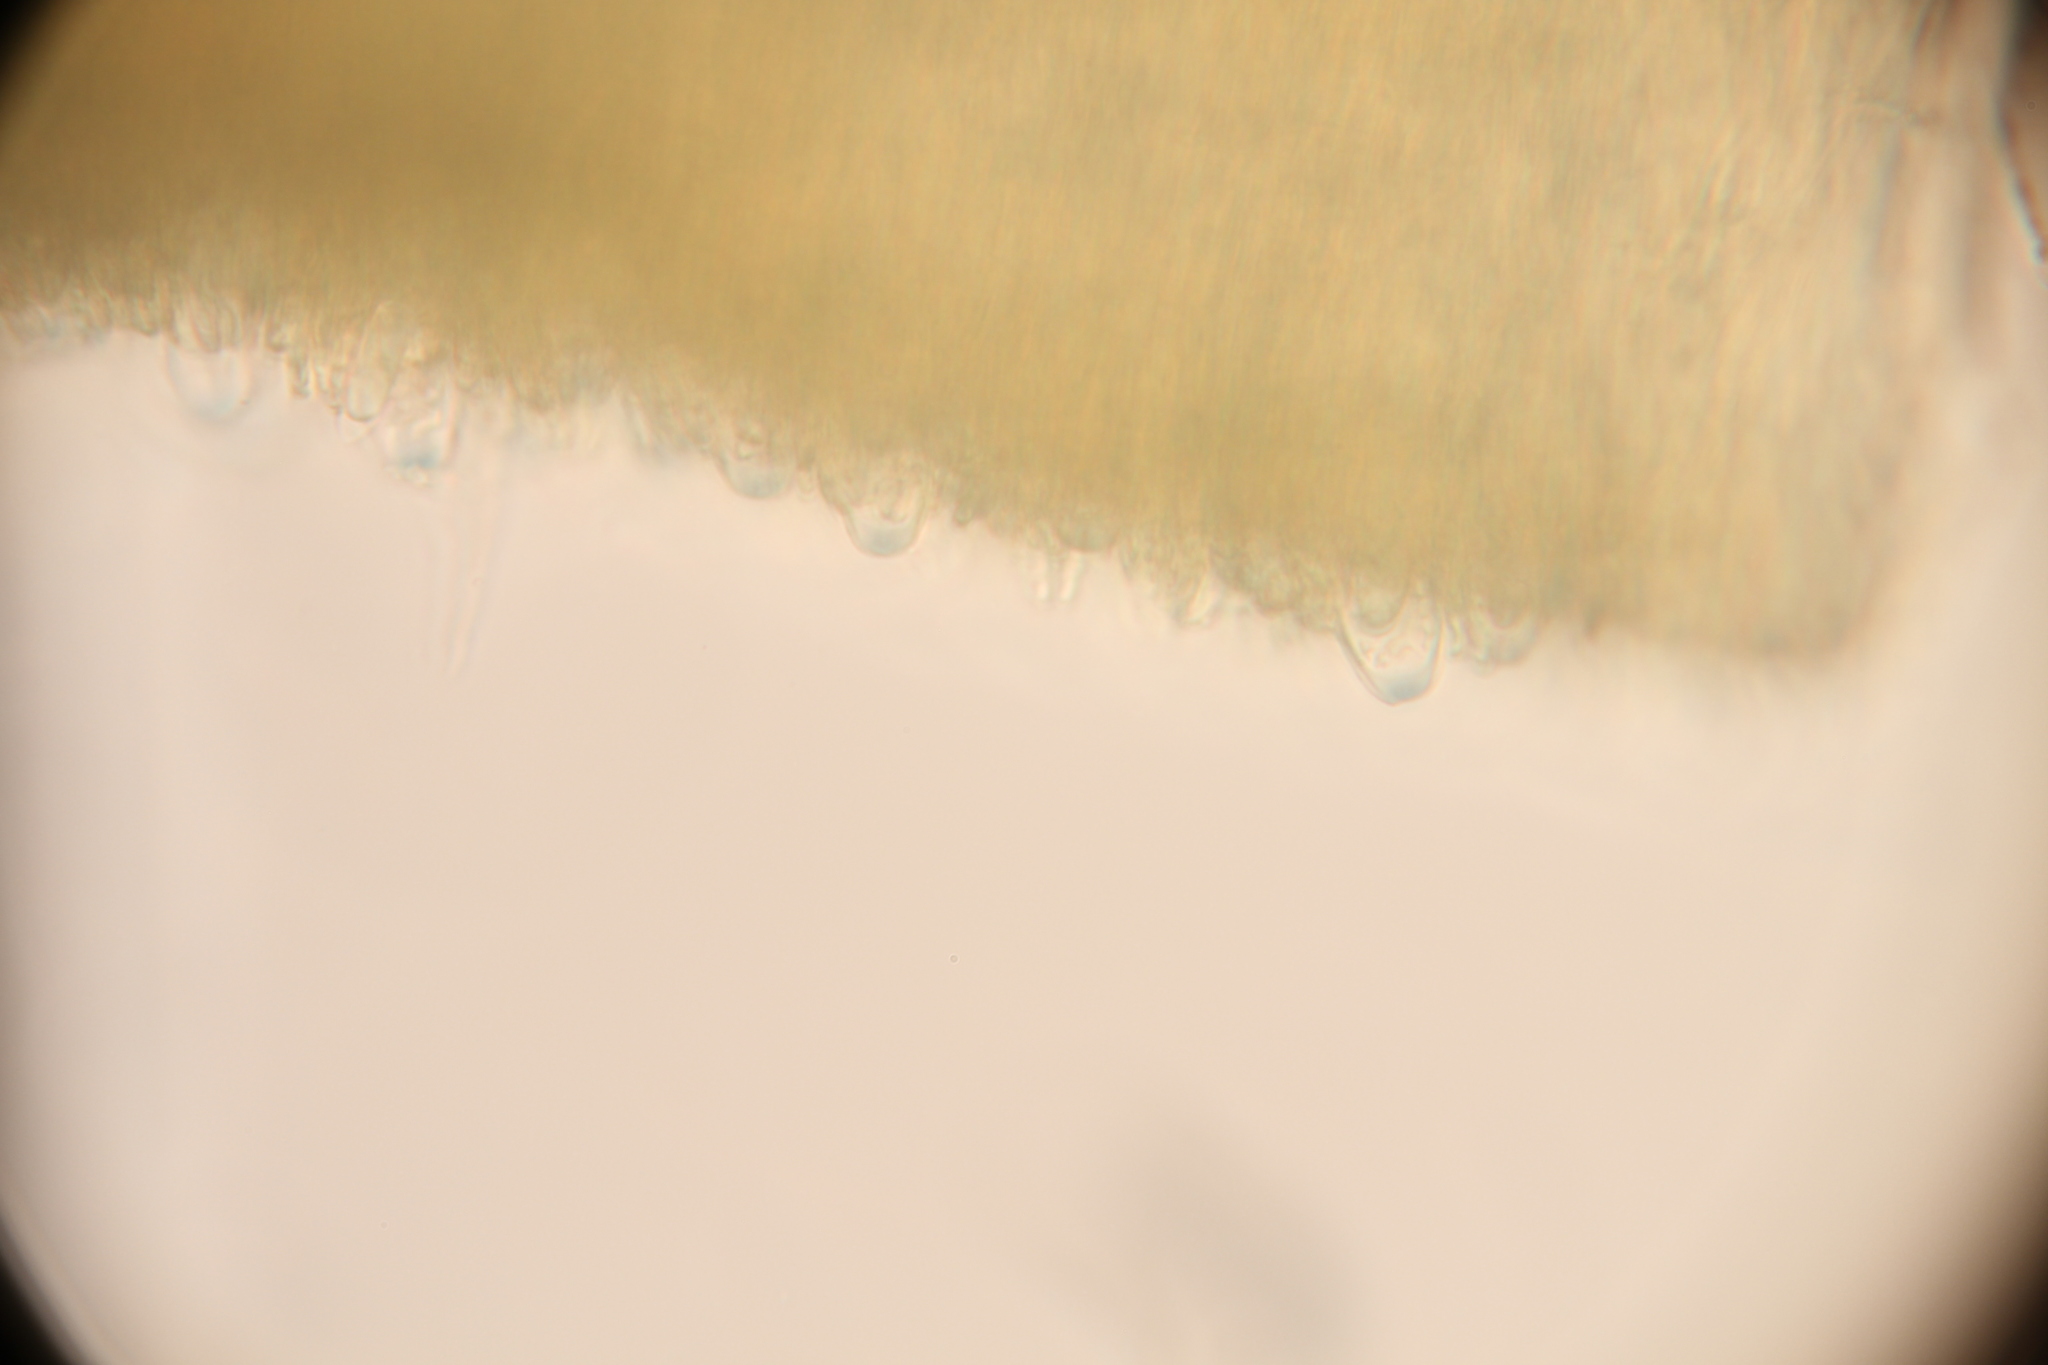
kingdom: Fungi
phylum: Ascomycota
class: Leotiomycetes
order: Helotiales
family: Helotiaceae
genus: Tatraea
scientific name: Tatraea macrospora
